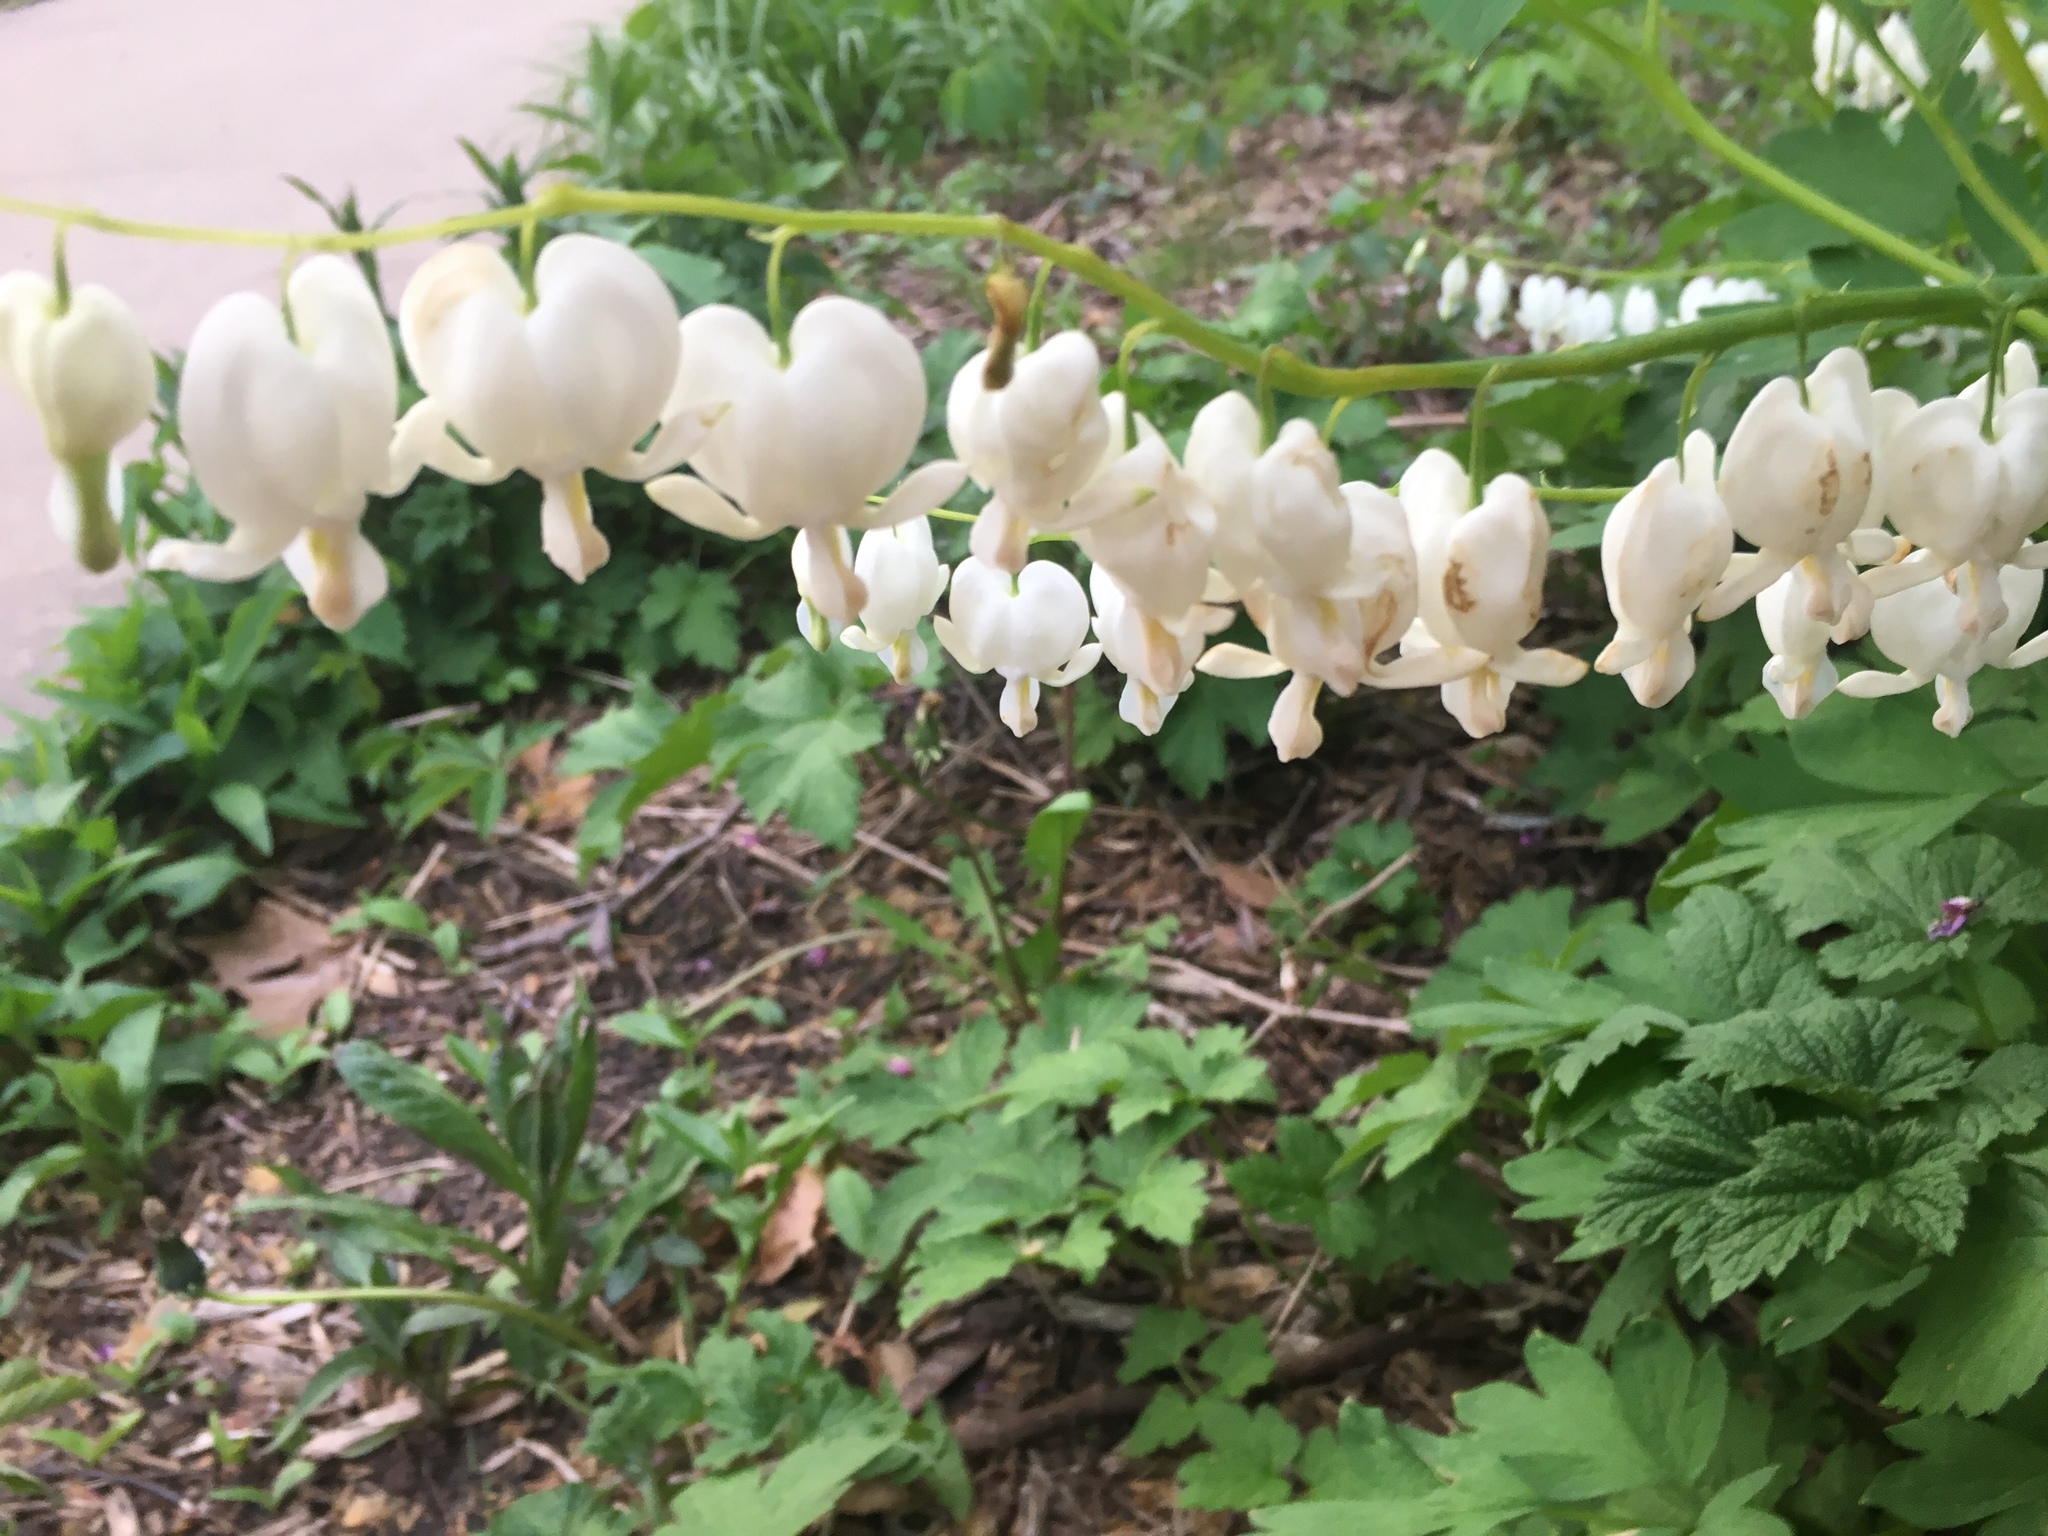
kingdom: Plantae
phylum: Tracheophyta
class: Magnoliopsida
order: Ranunculales
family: Papaveraceae
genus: Dicentra
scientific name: Dicentra canadensis
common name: Squirrel-corn
